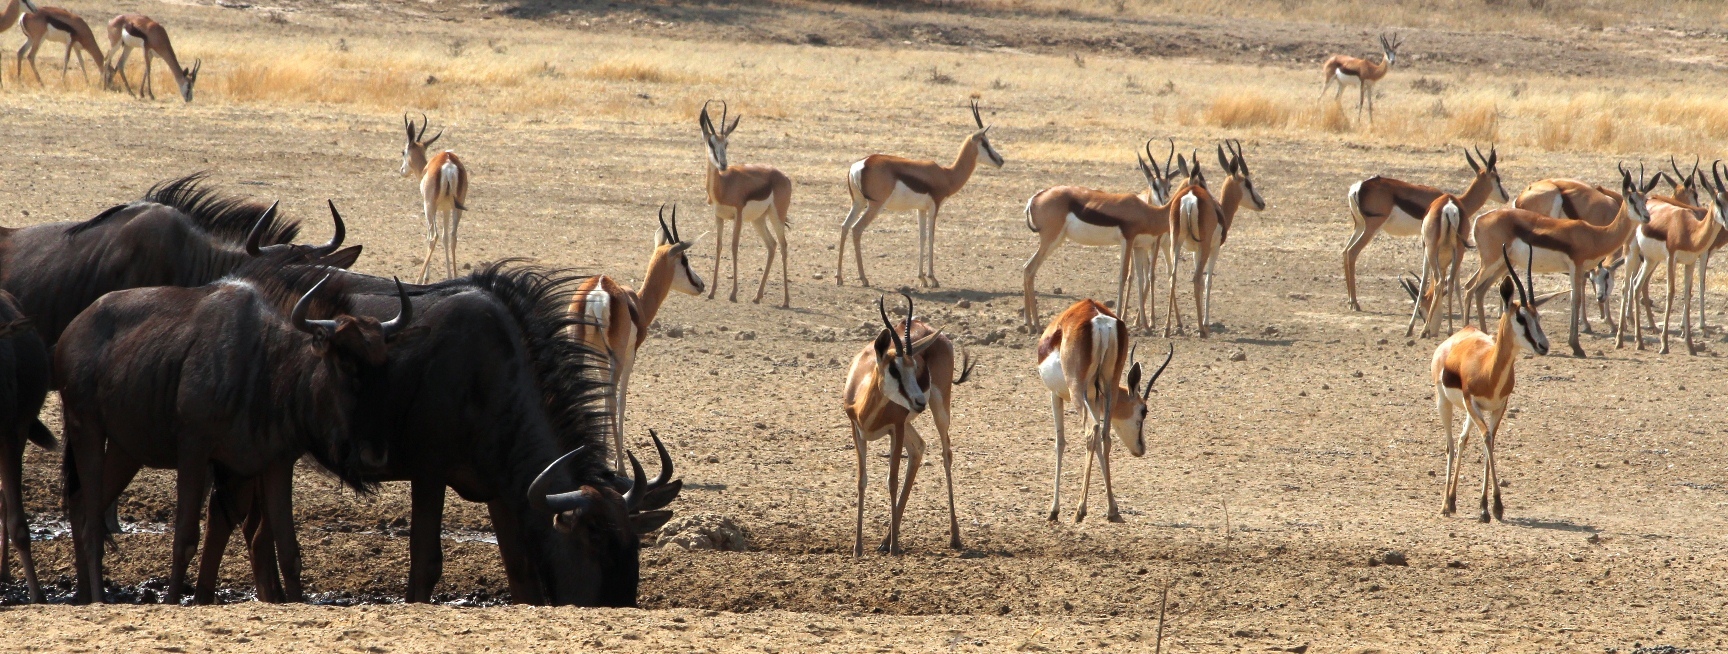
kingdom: Animalia
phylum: Chordata
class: Mammalia
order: Artiodactyla
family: Bovidae
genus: Antidorcas
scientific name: Antidorcas marsupialis
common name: Springbok
